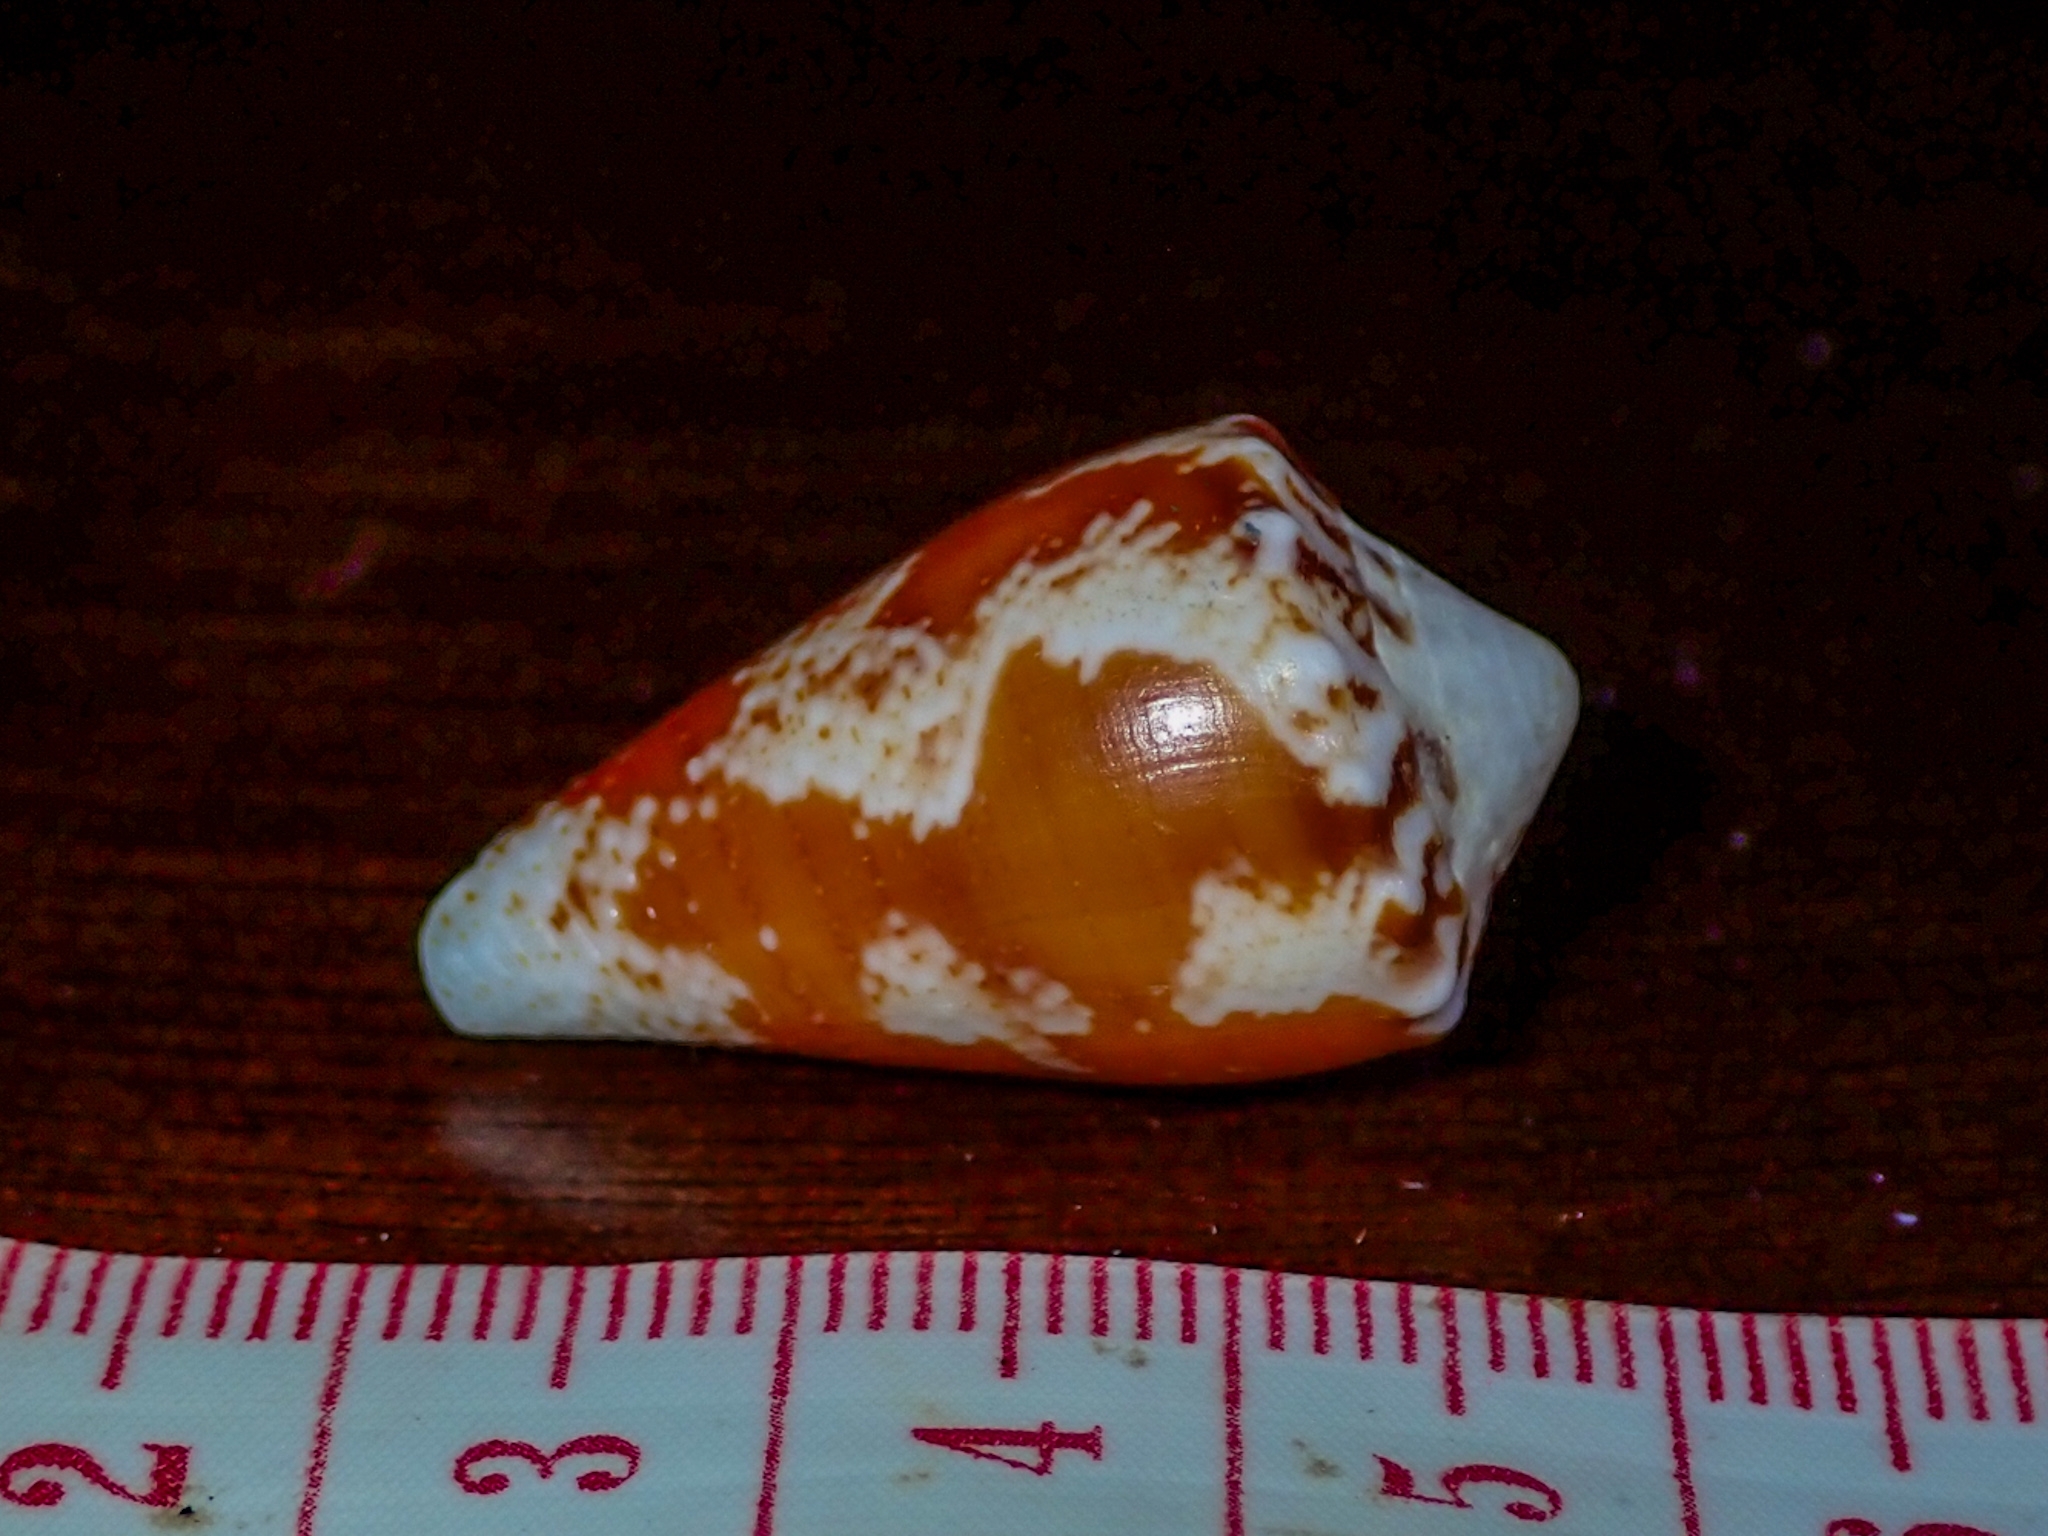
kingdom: Animalia
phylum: Mollusca
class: Gastropoda
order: Neogastropoda
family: Conidae
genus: Conus
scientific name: Conus regius
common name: Crown cone
